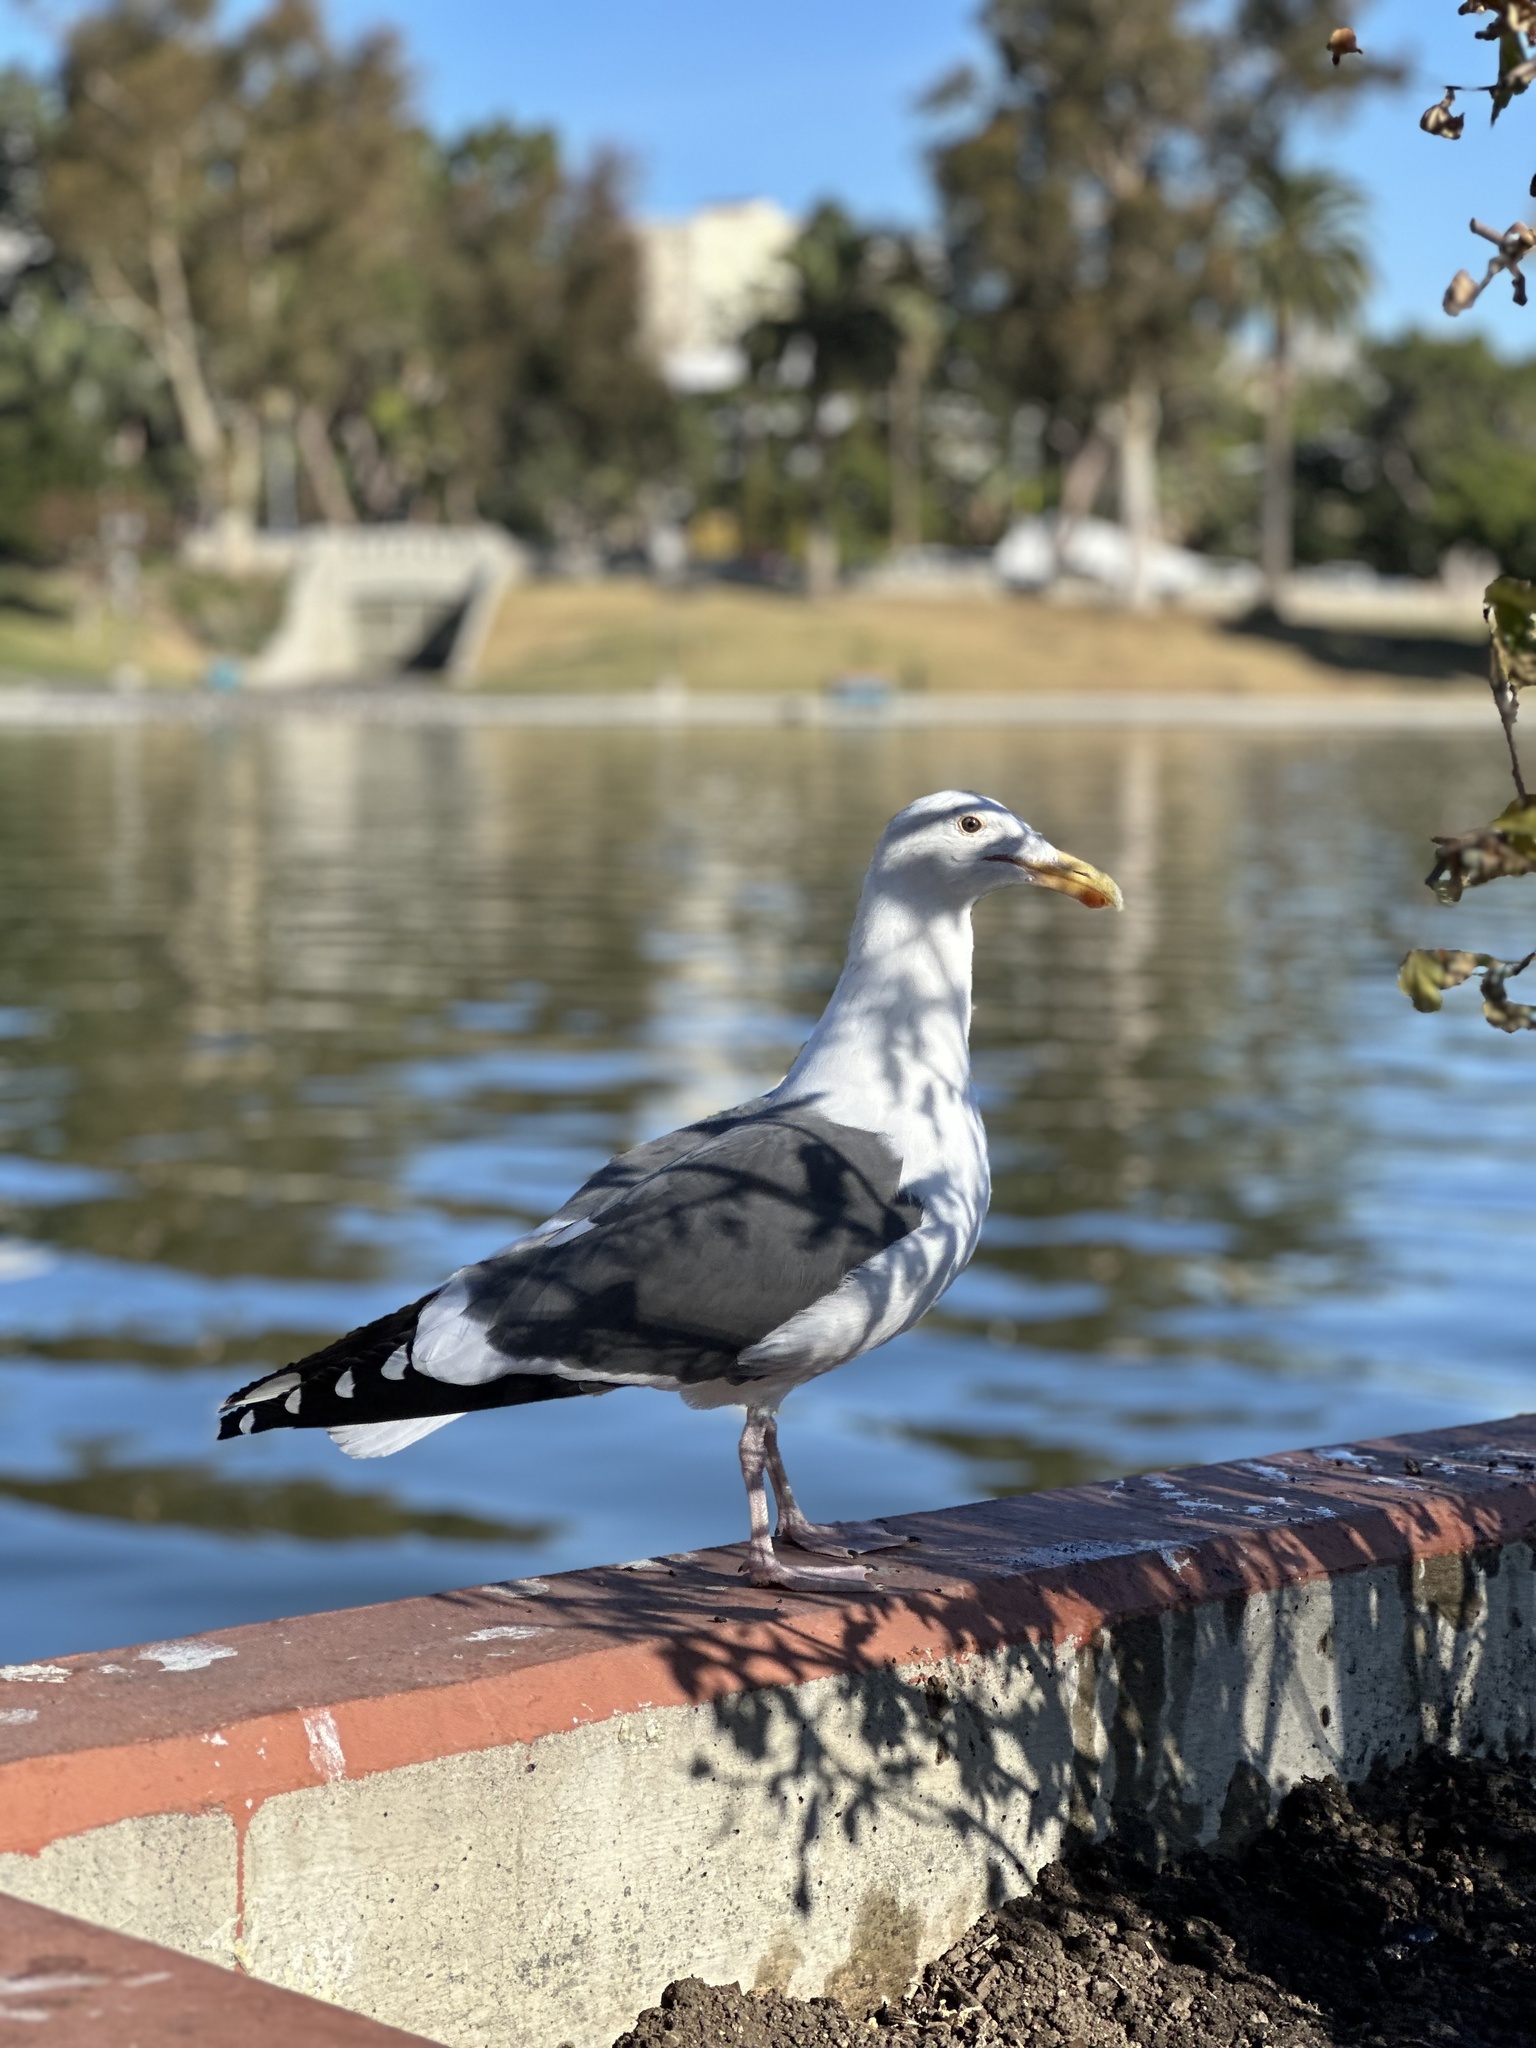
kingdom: Animalia
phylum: Chordata
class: Aves
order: Charadriiformes
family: Laridae
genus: Larus
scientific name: Larus occidentalis
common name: Western gull
